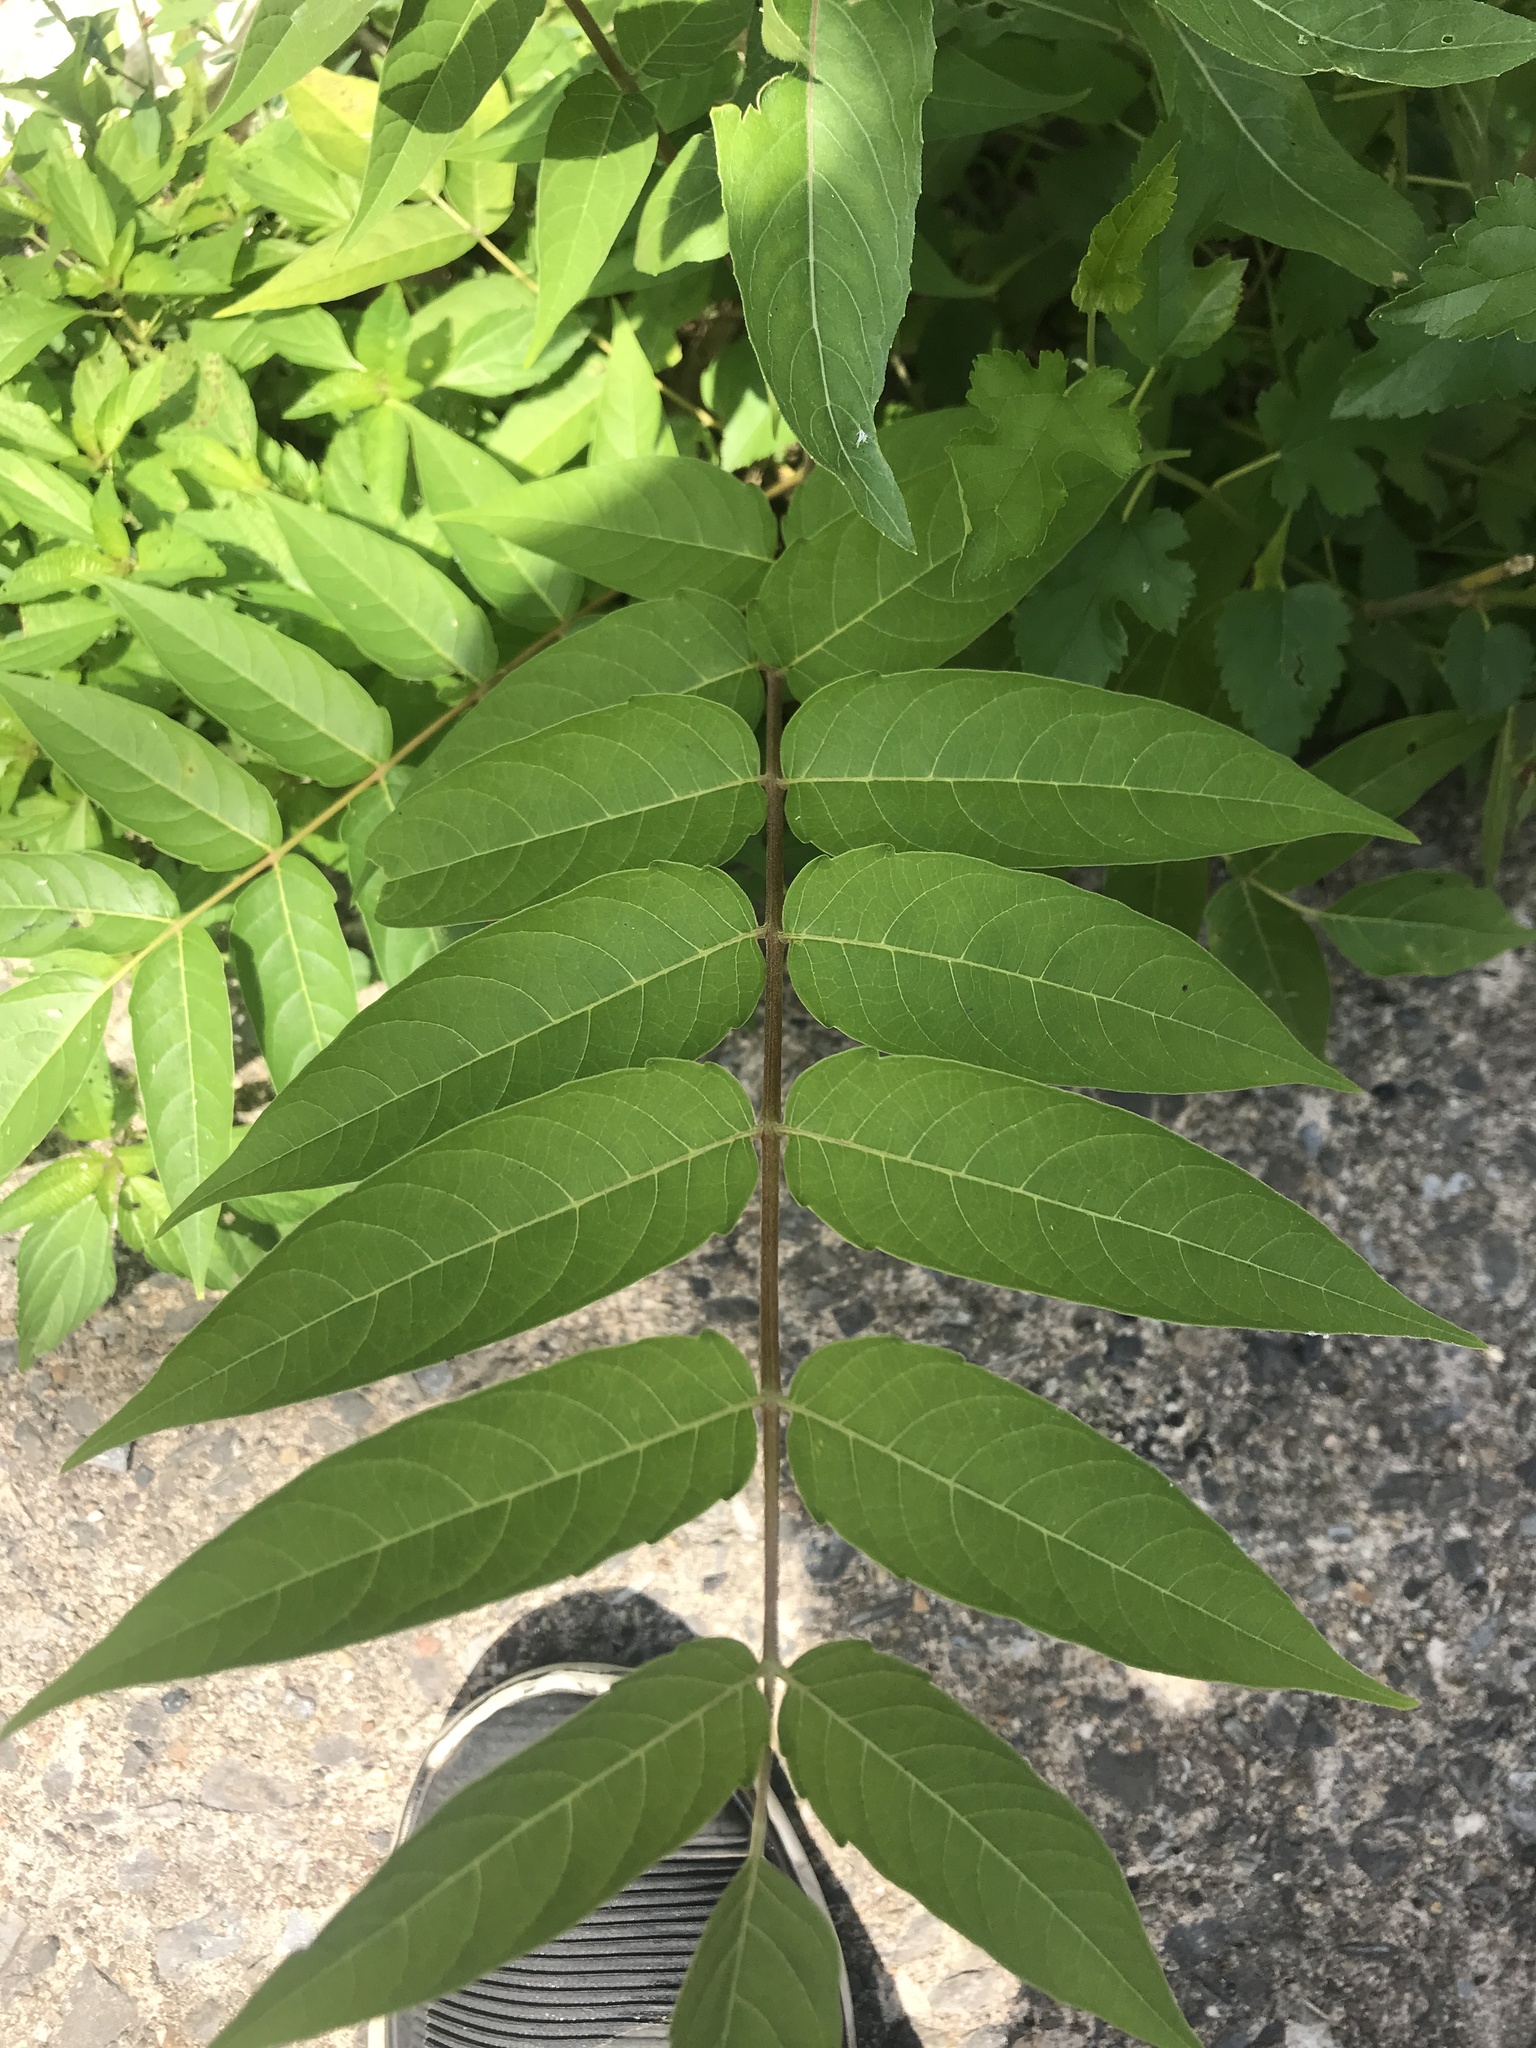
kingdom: Plantae
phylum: Tracheophyta
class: Magnoliopsida
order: Sapindales
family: Simaroubaceae
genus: Ailanthus
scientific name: Ailanthus altissima
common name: Tree-of-heaven
